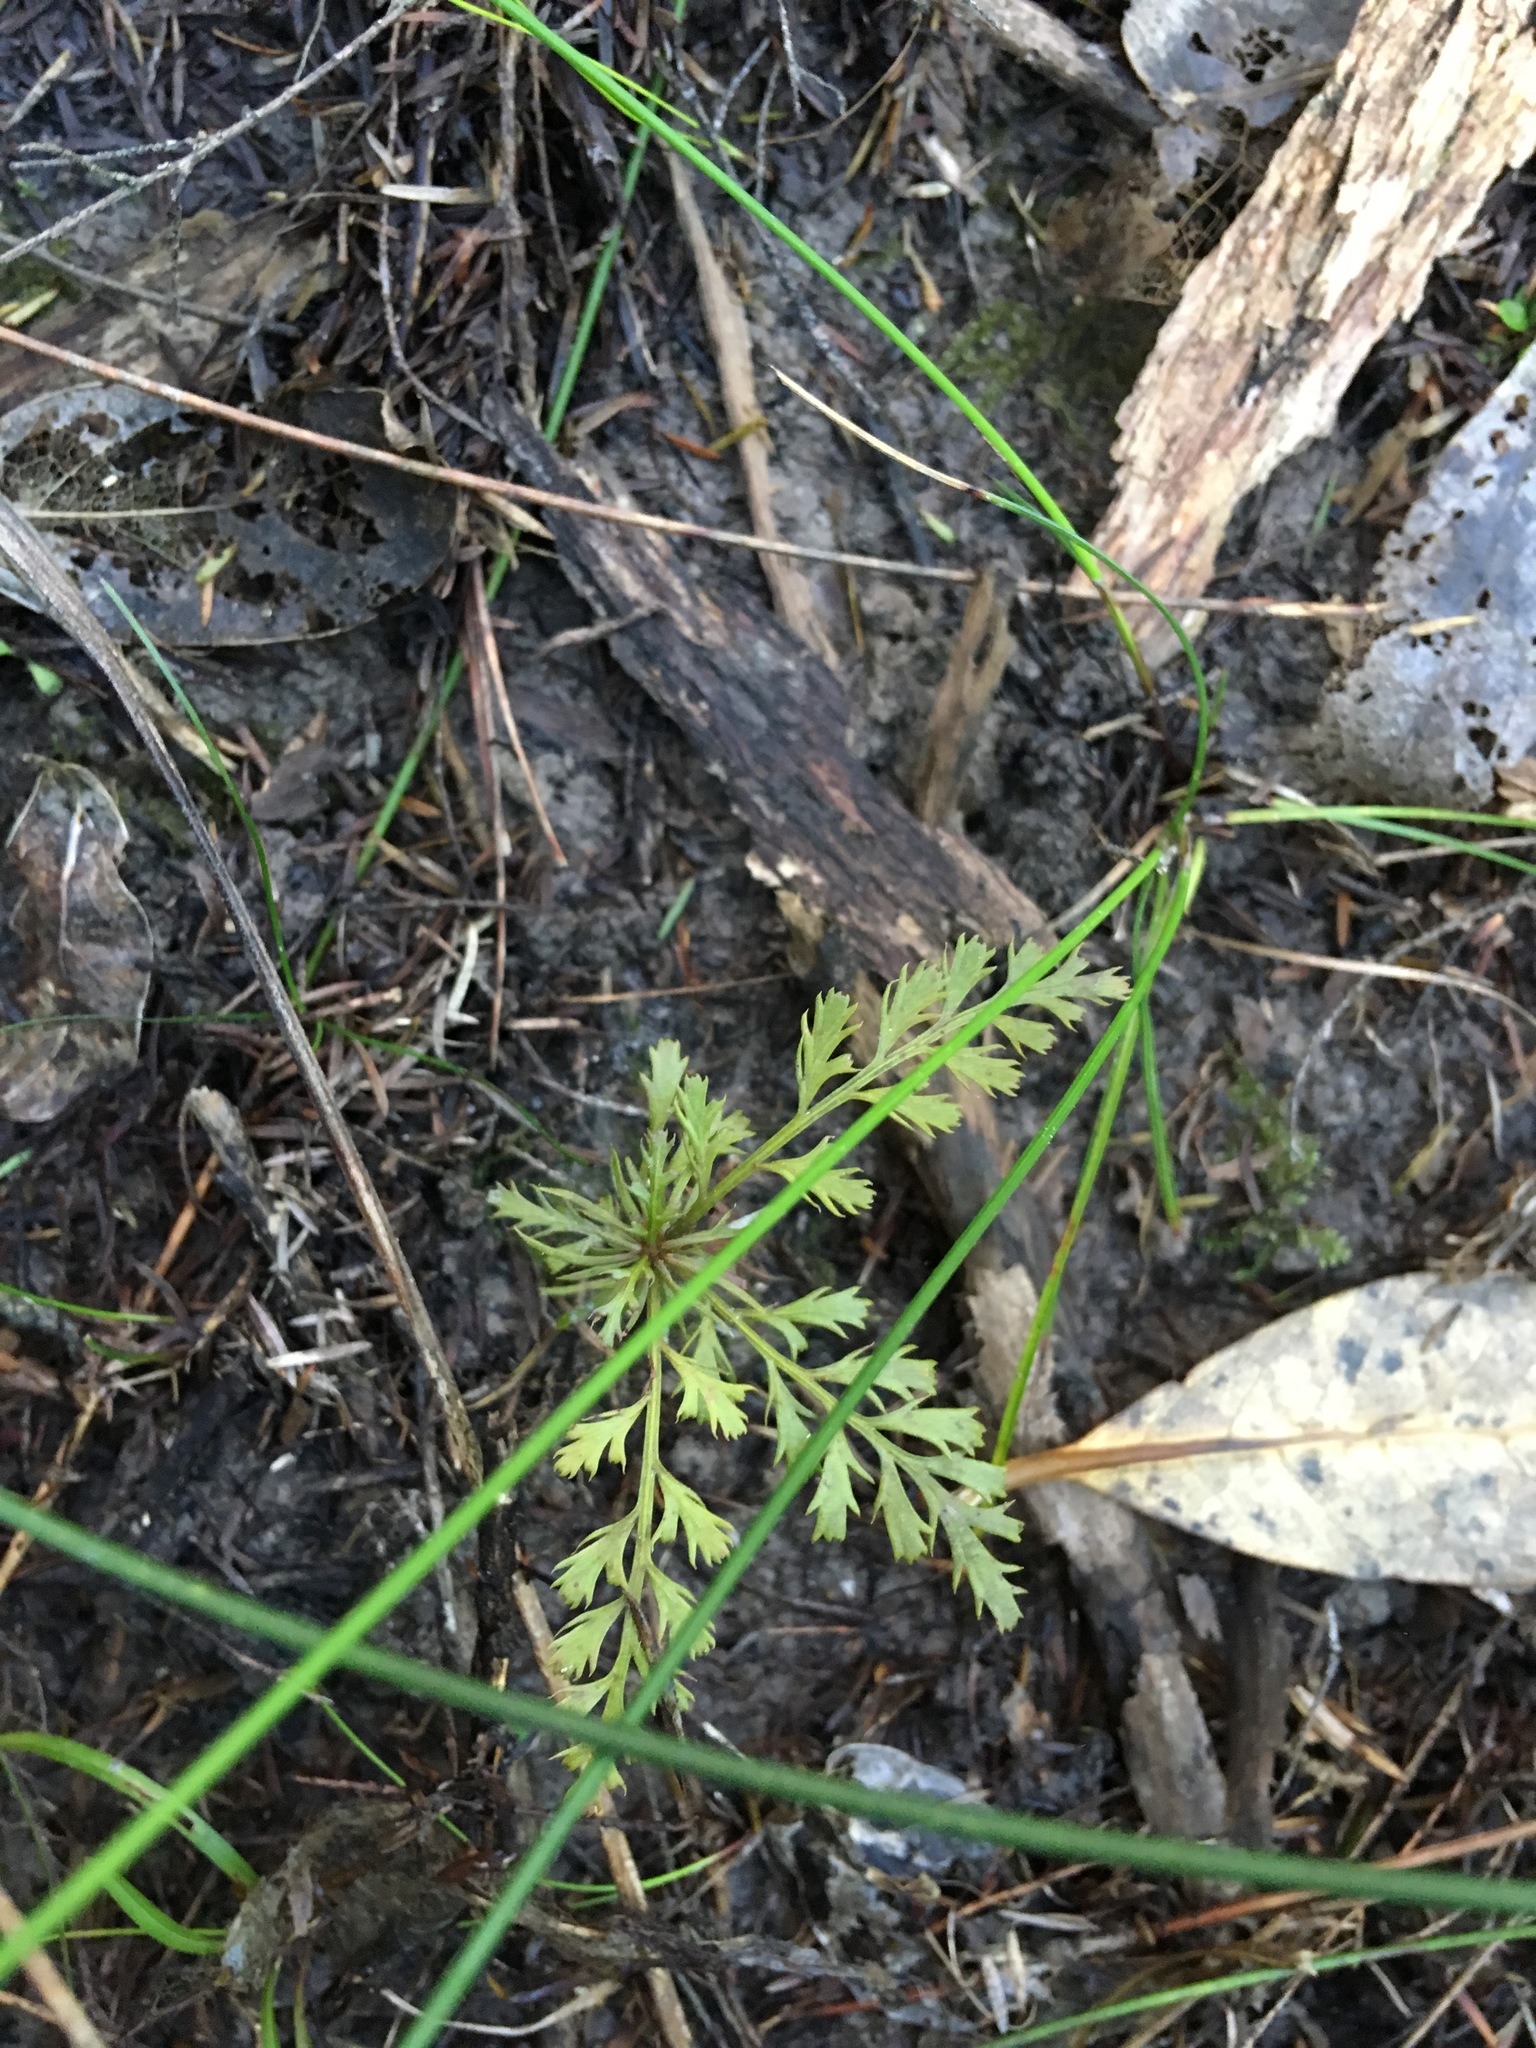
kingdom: Plantae
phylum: Tracheophyta
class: Pinopsida
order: Pinales
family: Phyllocladaceae
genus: Phyllocladus
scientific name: Phyllocladus trichomanoides
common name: Celery pine
